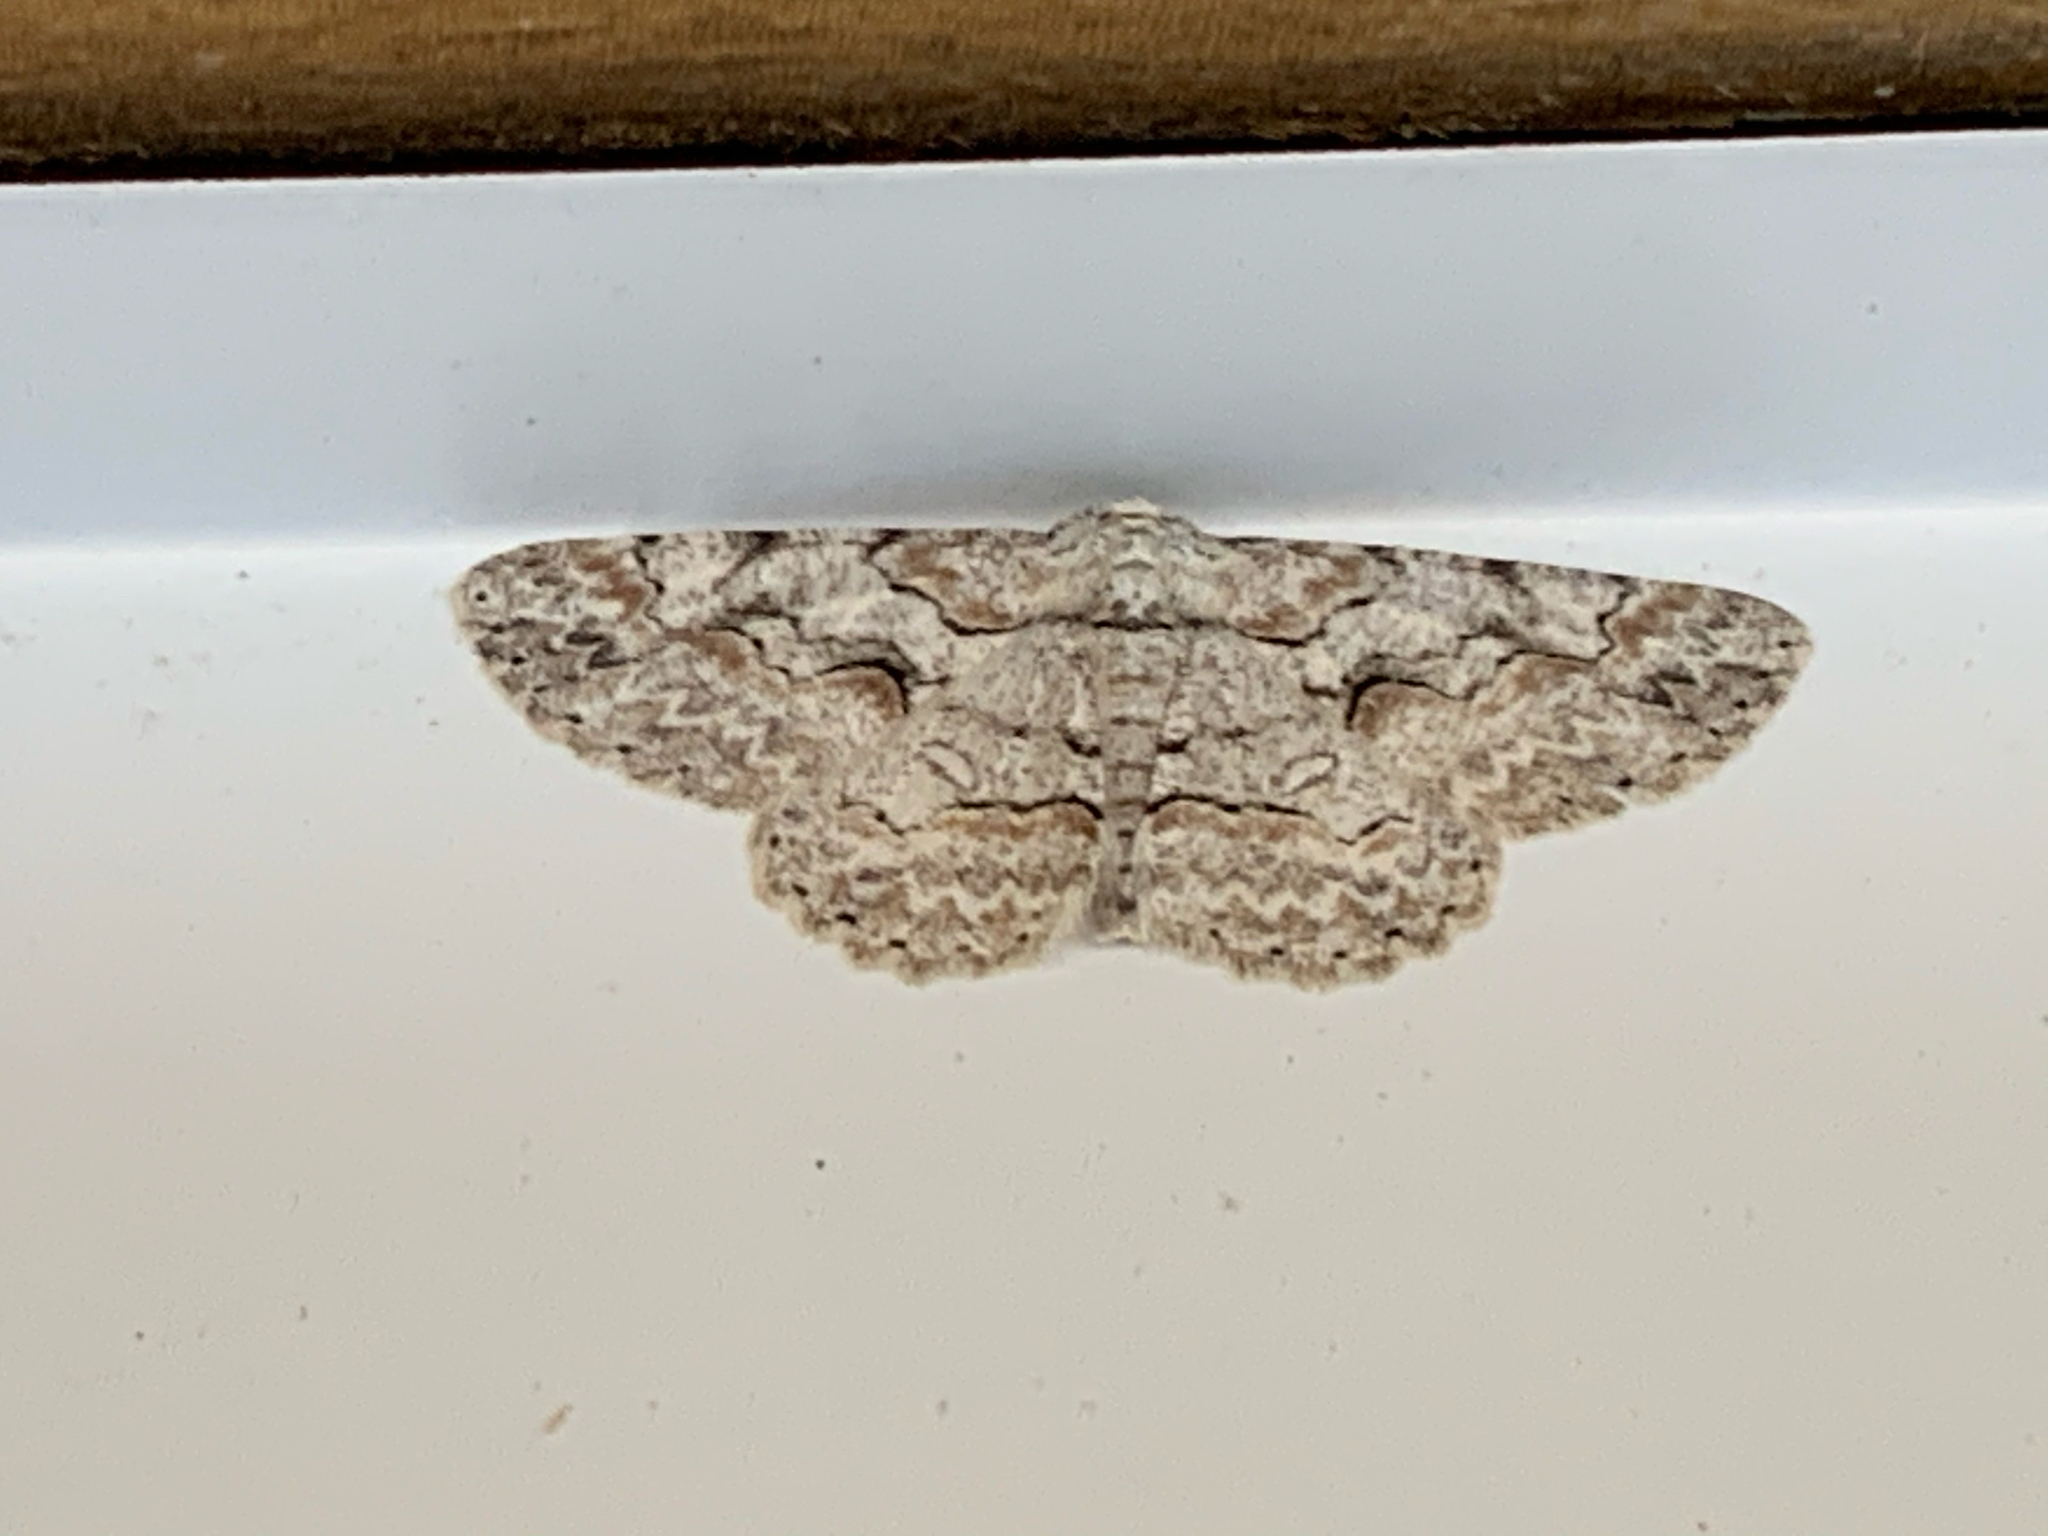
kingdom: Animalia
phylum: Arthropoda
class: Insecta
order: Lepidoptera
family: Geometridae
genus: Iridopsis
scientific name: Iridopsis defectaria
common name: Brown-shaded gray
